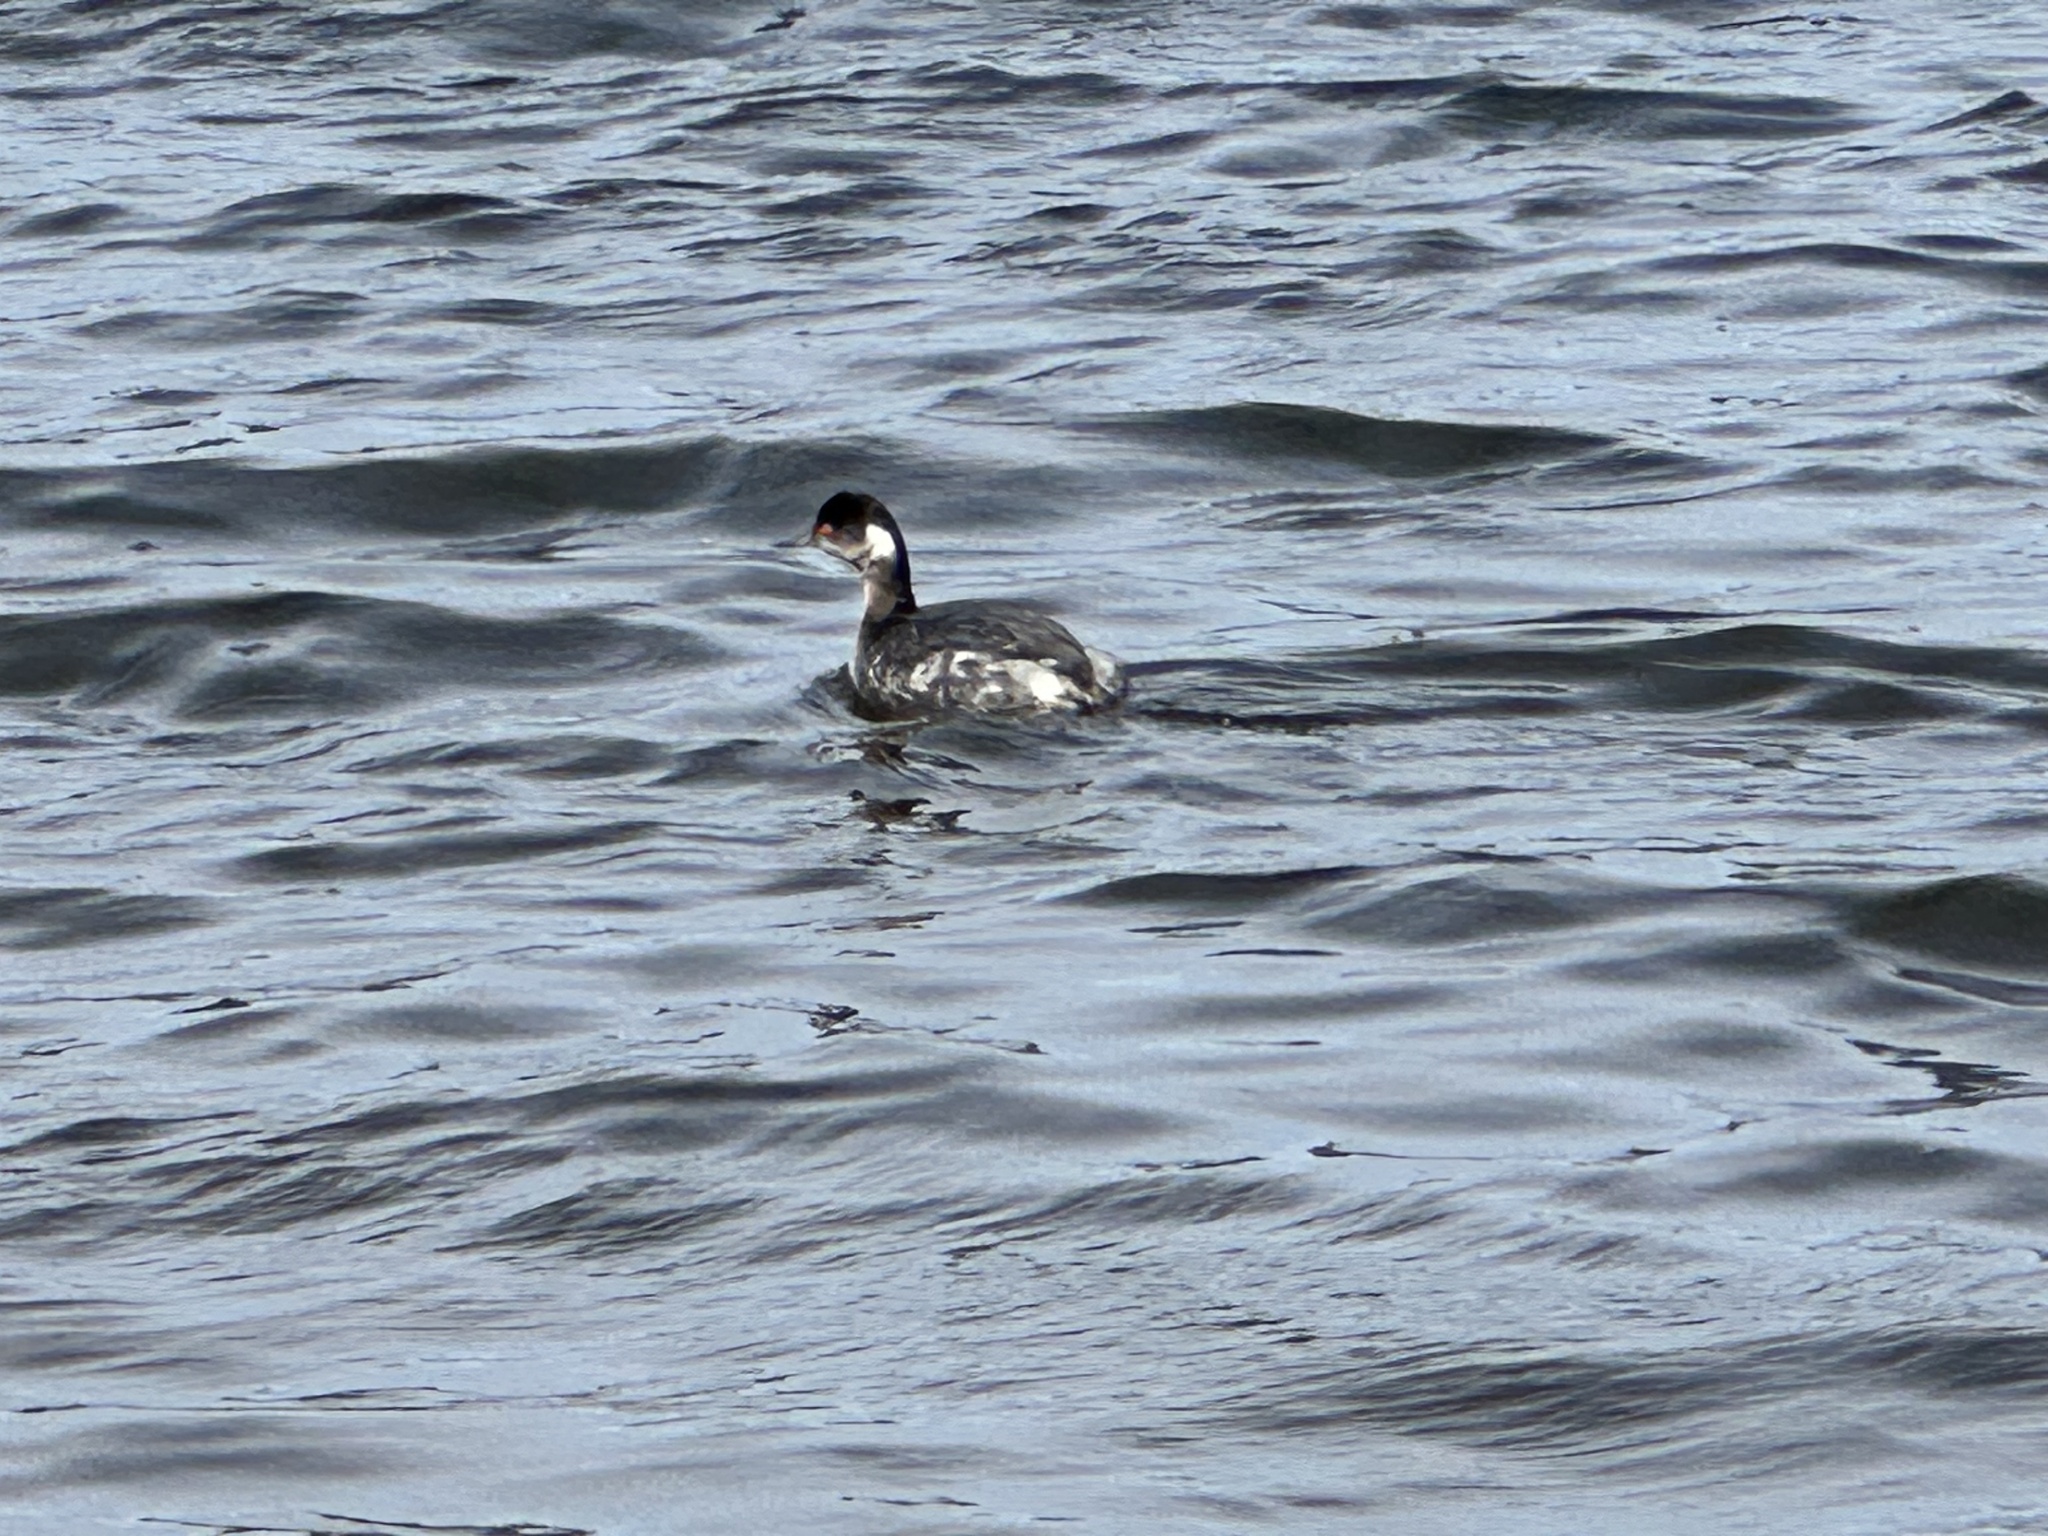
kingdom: Animalia
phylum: Chordata
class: Aves
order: Podicipediformes
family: Podicipedidae
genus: Podiceps
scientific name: Podiceps nigricollis
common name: Black-necked grebe
